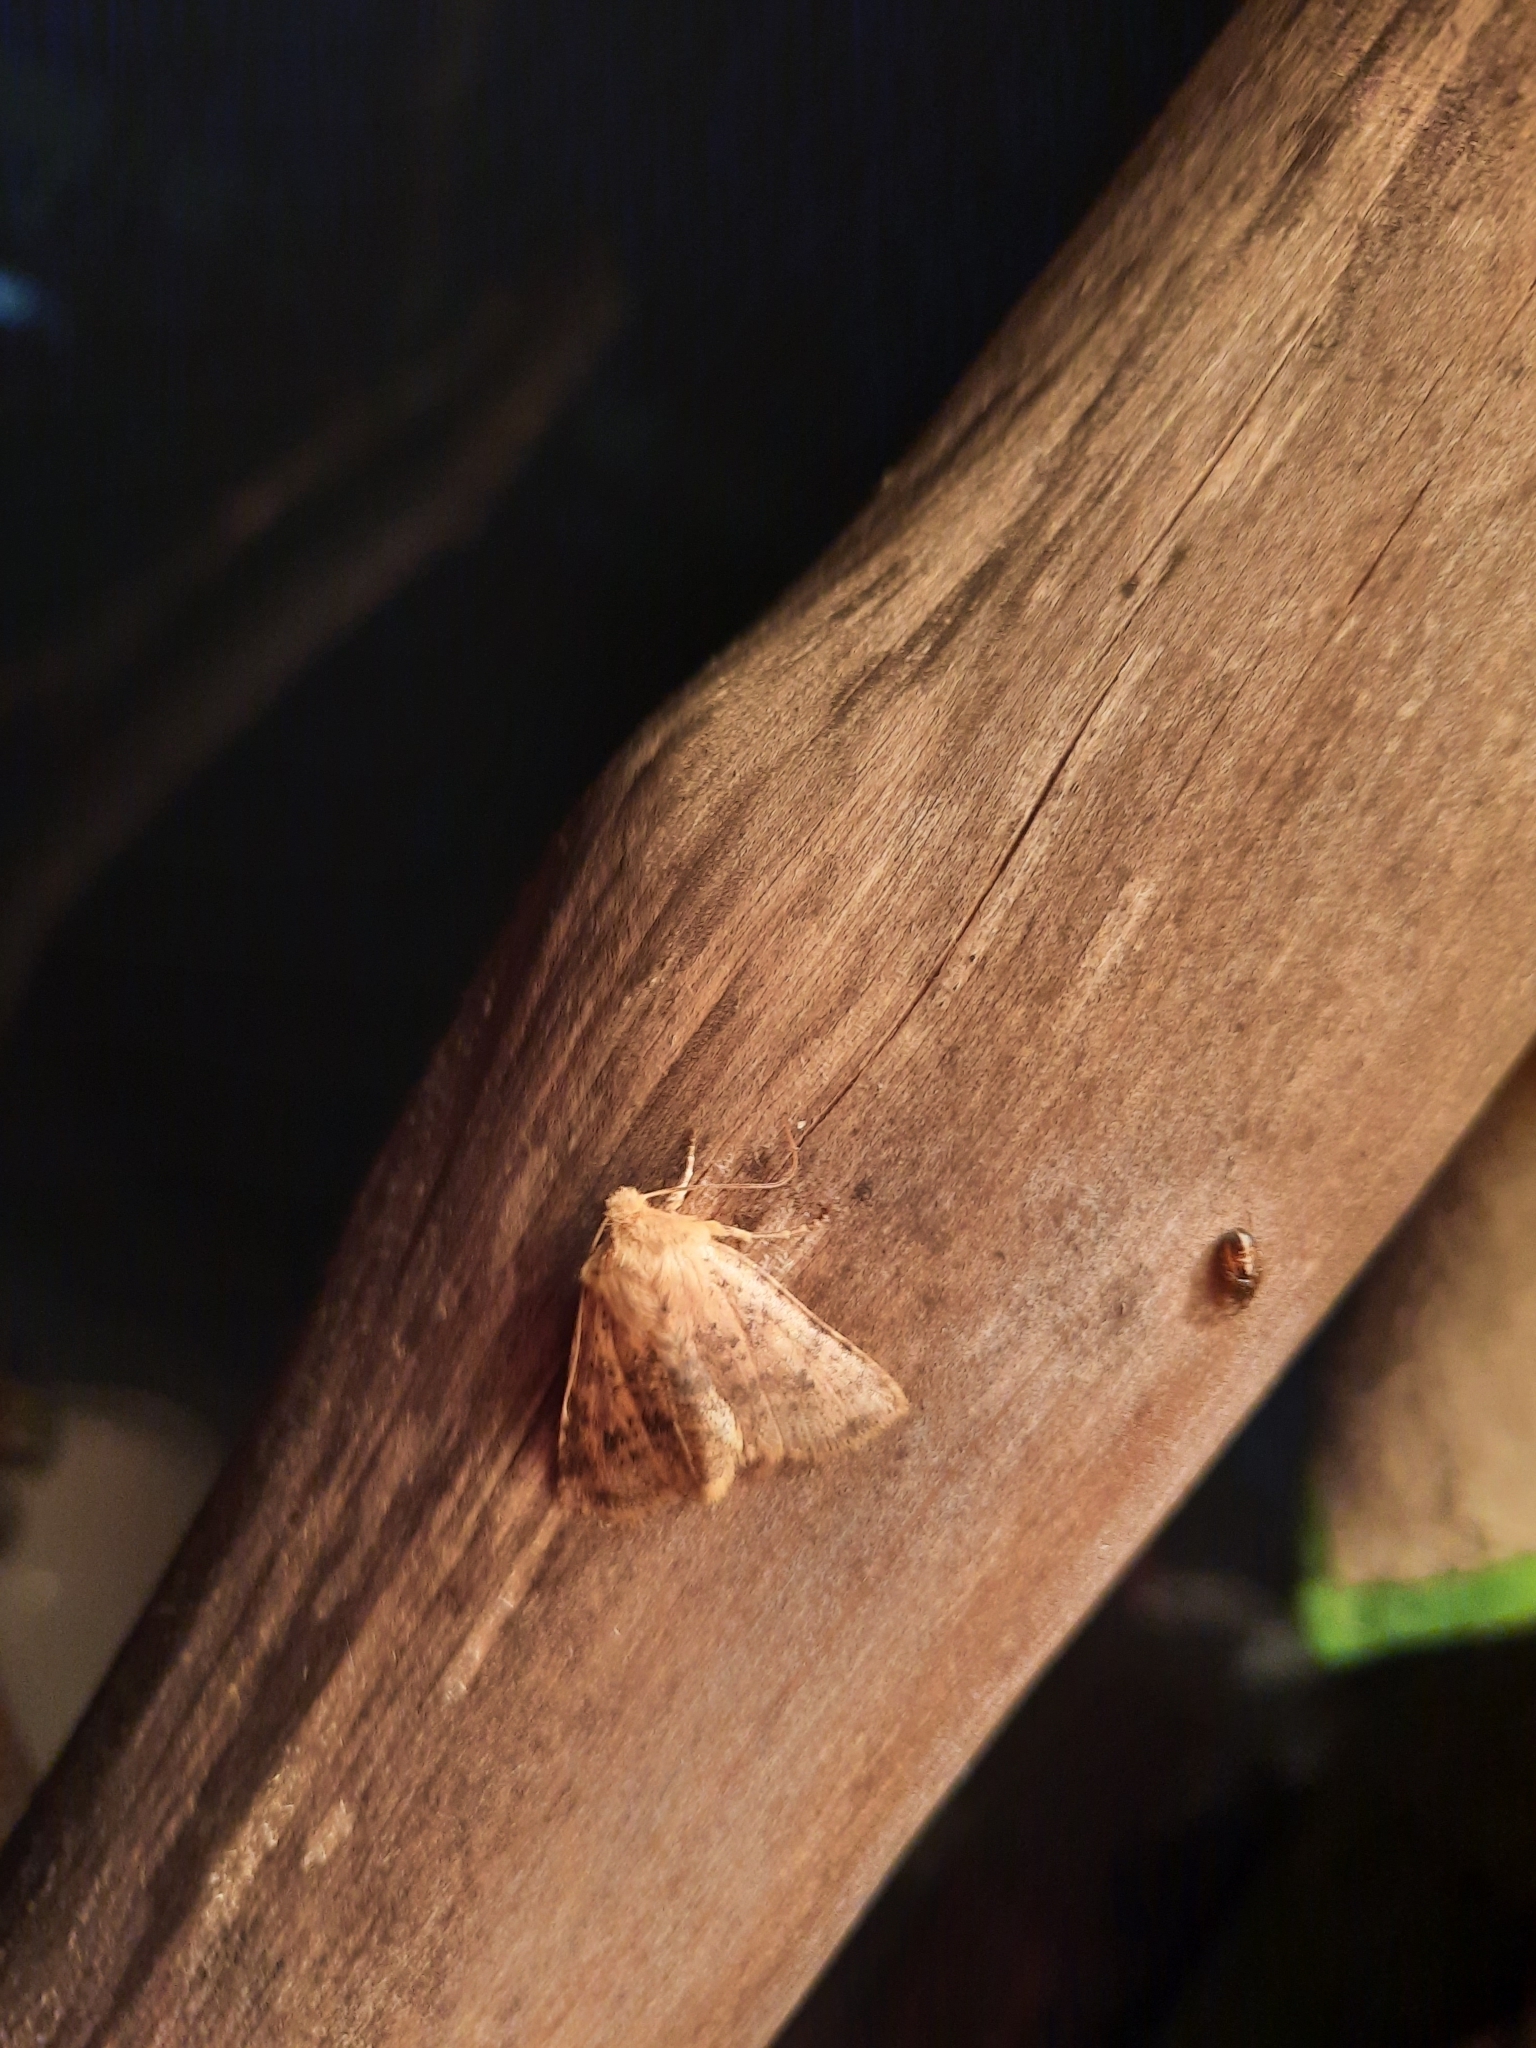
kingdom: Animalia
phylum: Arthropoda
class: Insecta
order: Lepidoptera
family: Noctuidae
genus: Conistra
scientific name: Conistra rubiginea
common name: Dotted chestnut
